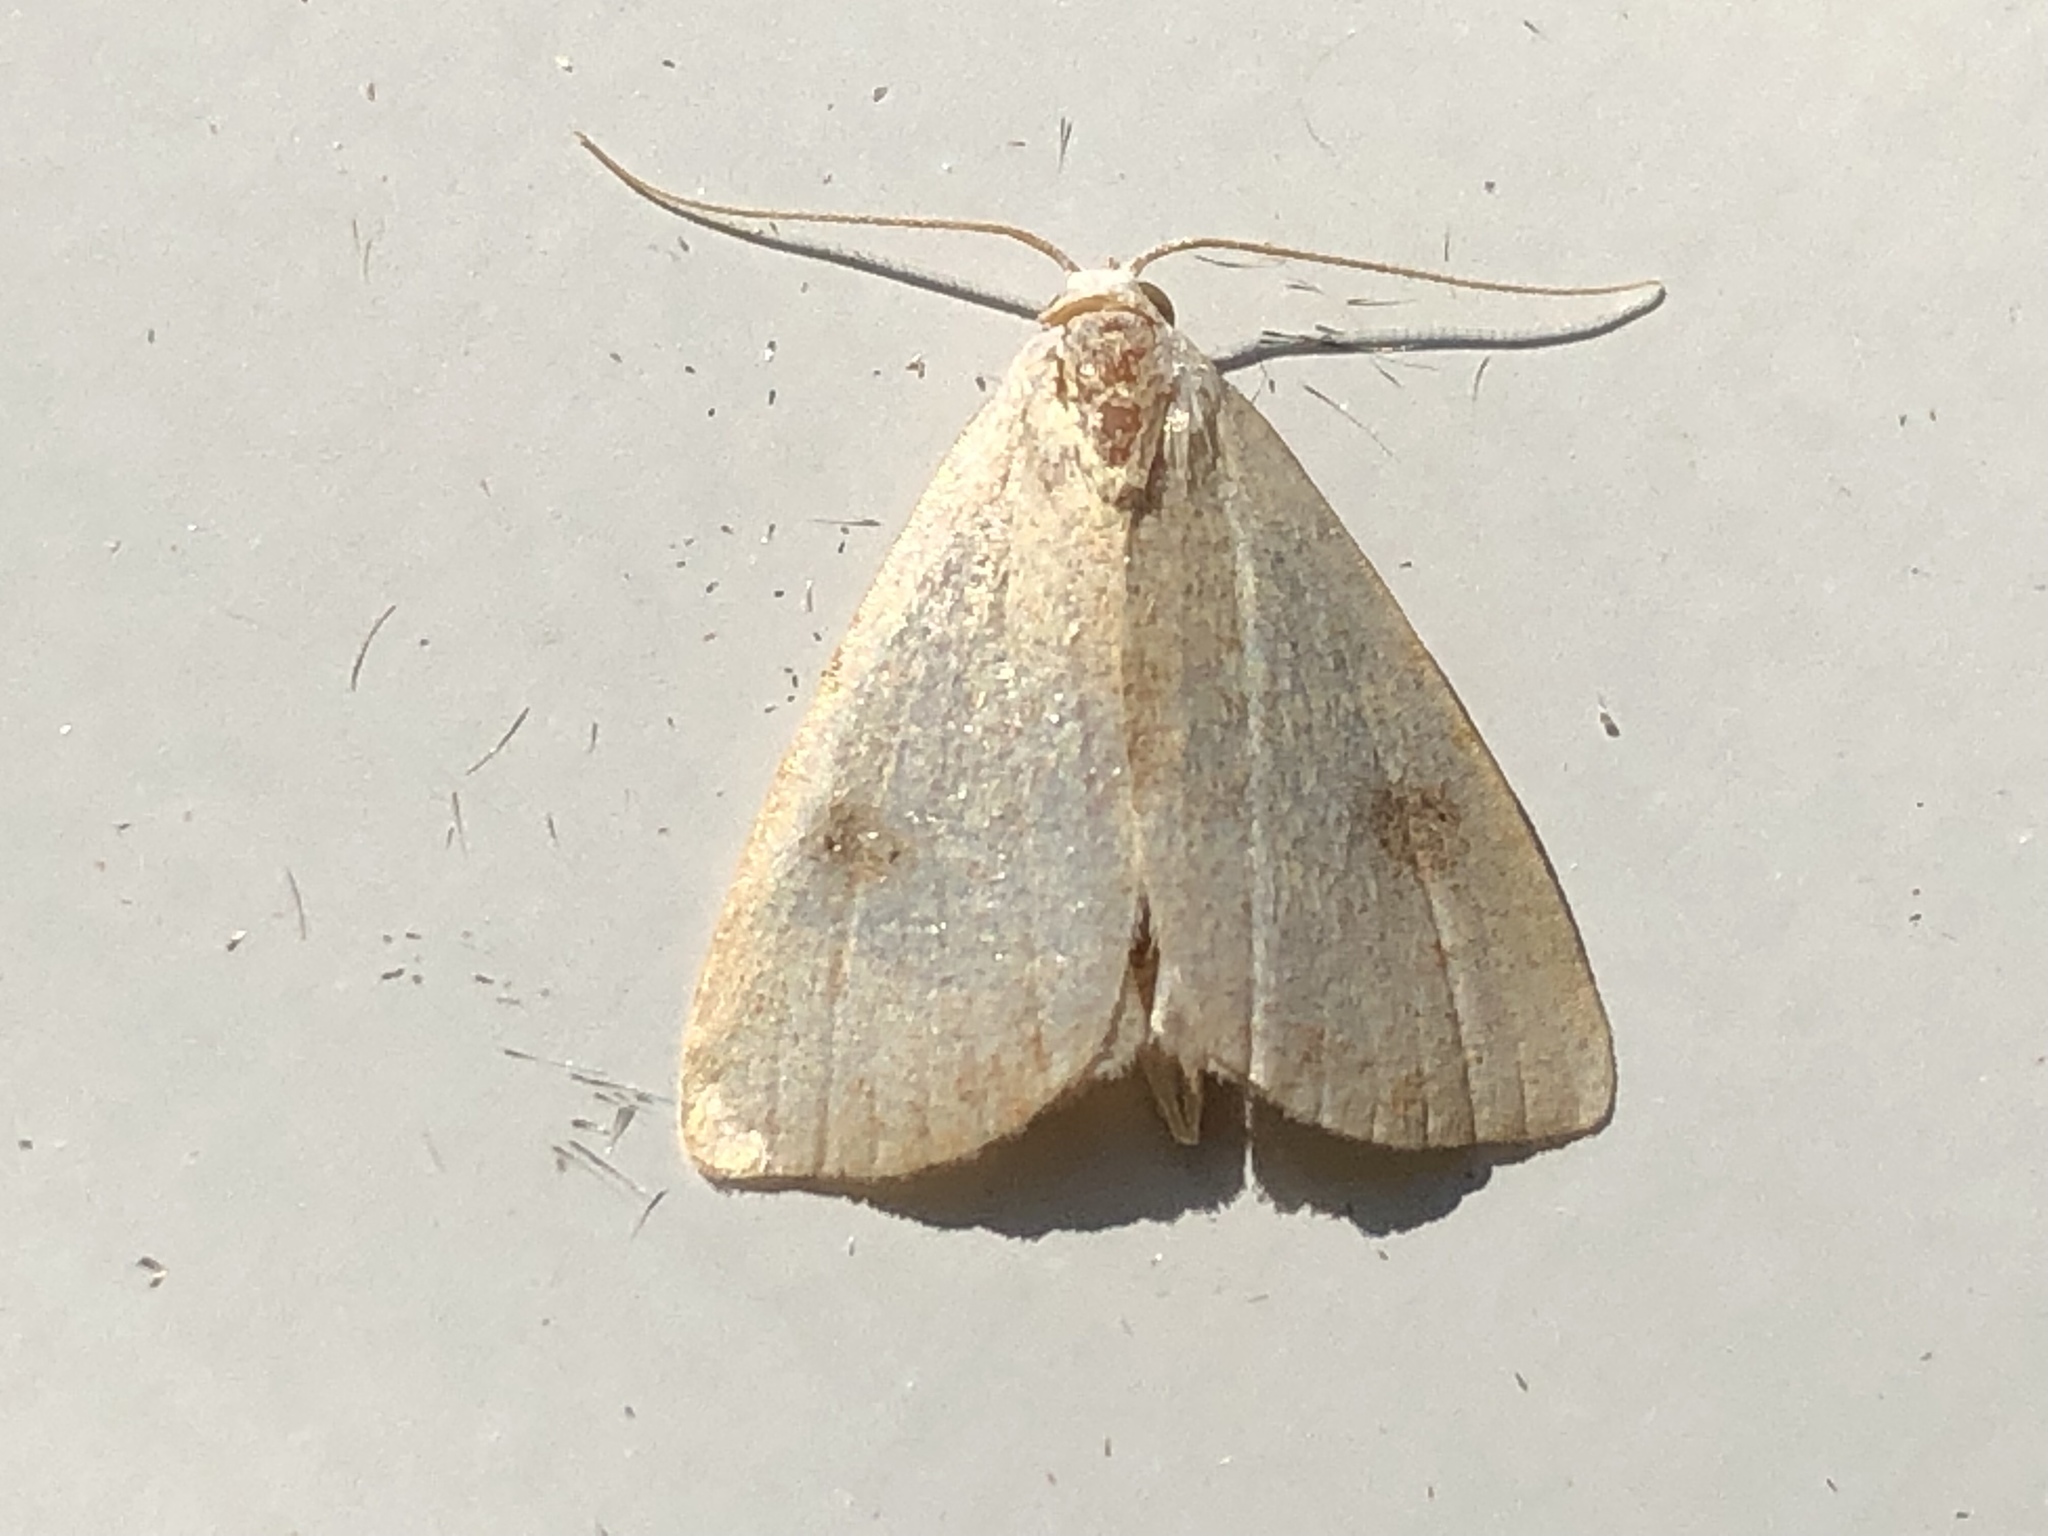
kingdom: Animalia
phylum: Arthropoda
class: Insecta
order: Lepidoptera
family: Erebidae
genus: Rivula
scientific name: Rivula sericealis
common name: Straw dot
